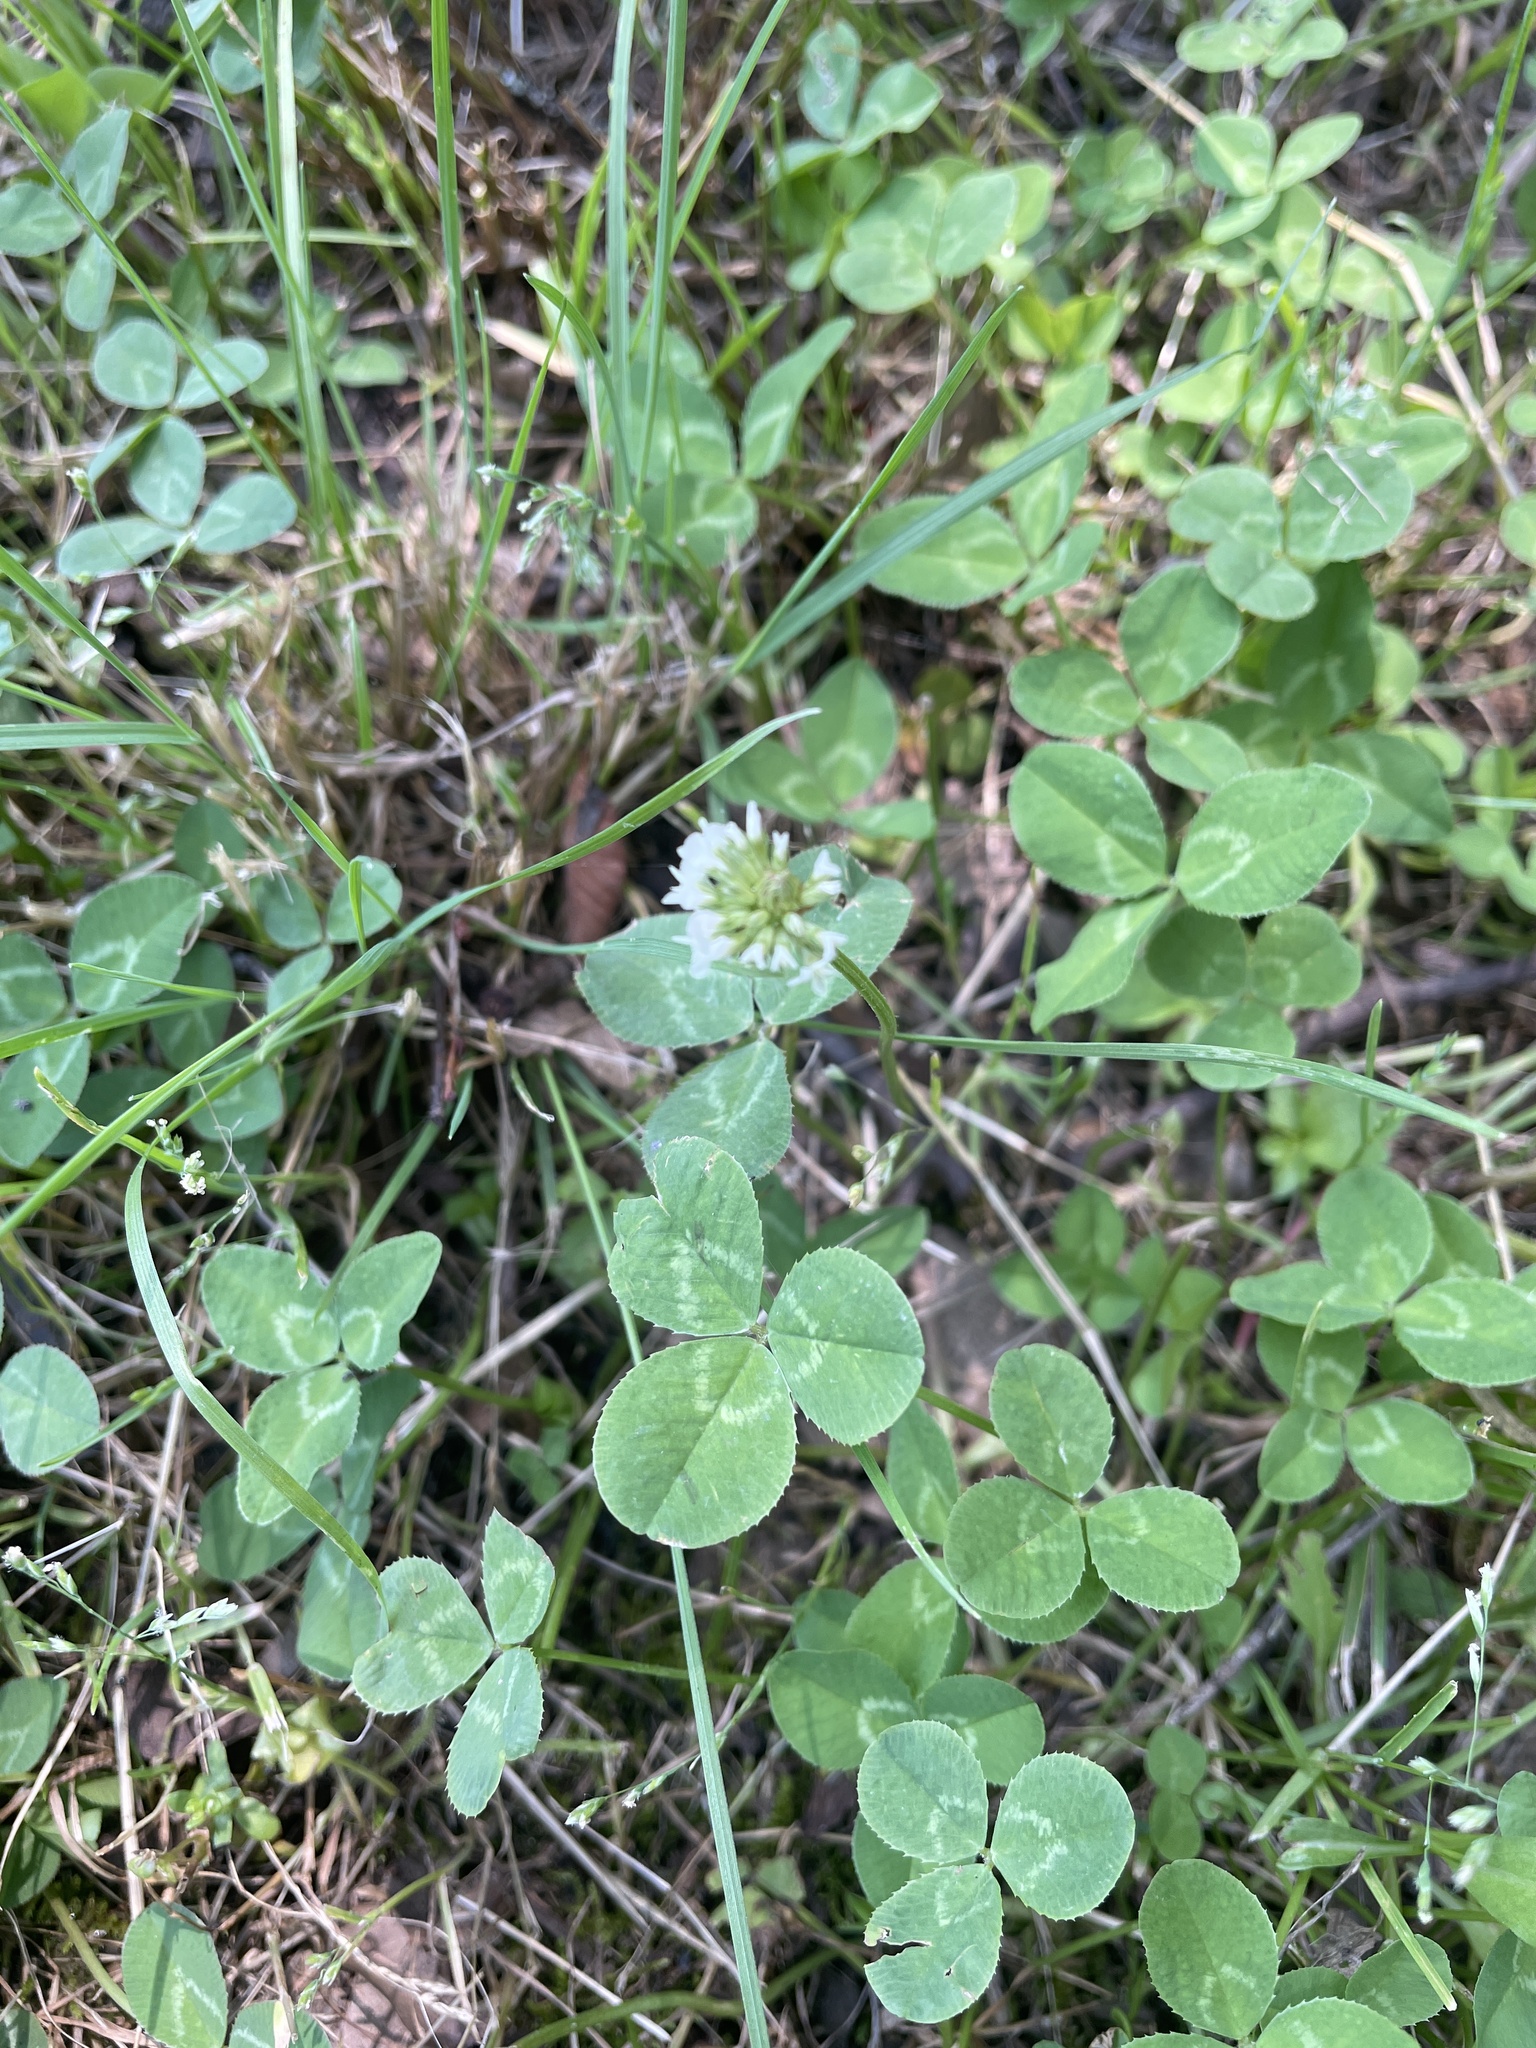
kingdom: Plantae
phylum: Tracheophyta
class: Magnoliopsida
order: Fabales
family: Fabaceae
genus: Trifolium
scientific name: Trifolium repens
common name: White clover
